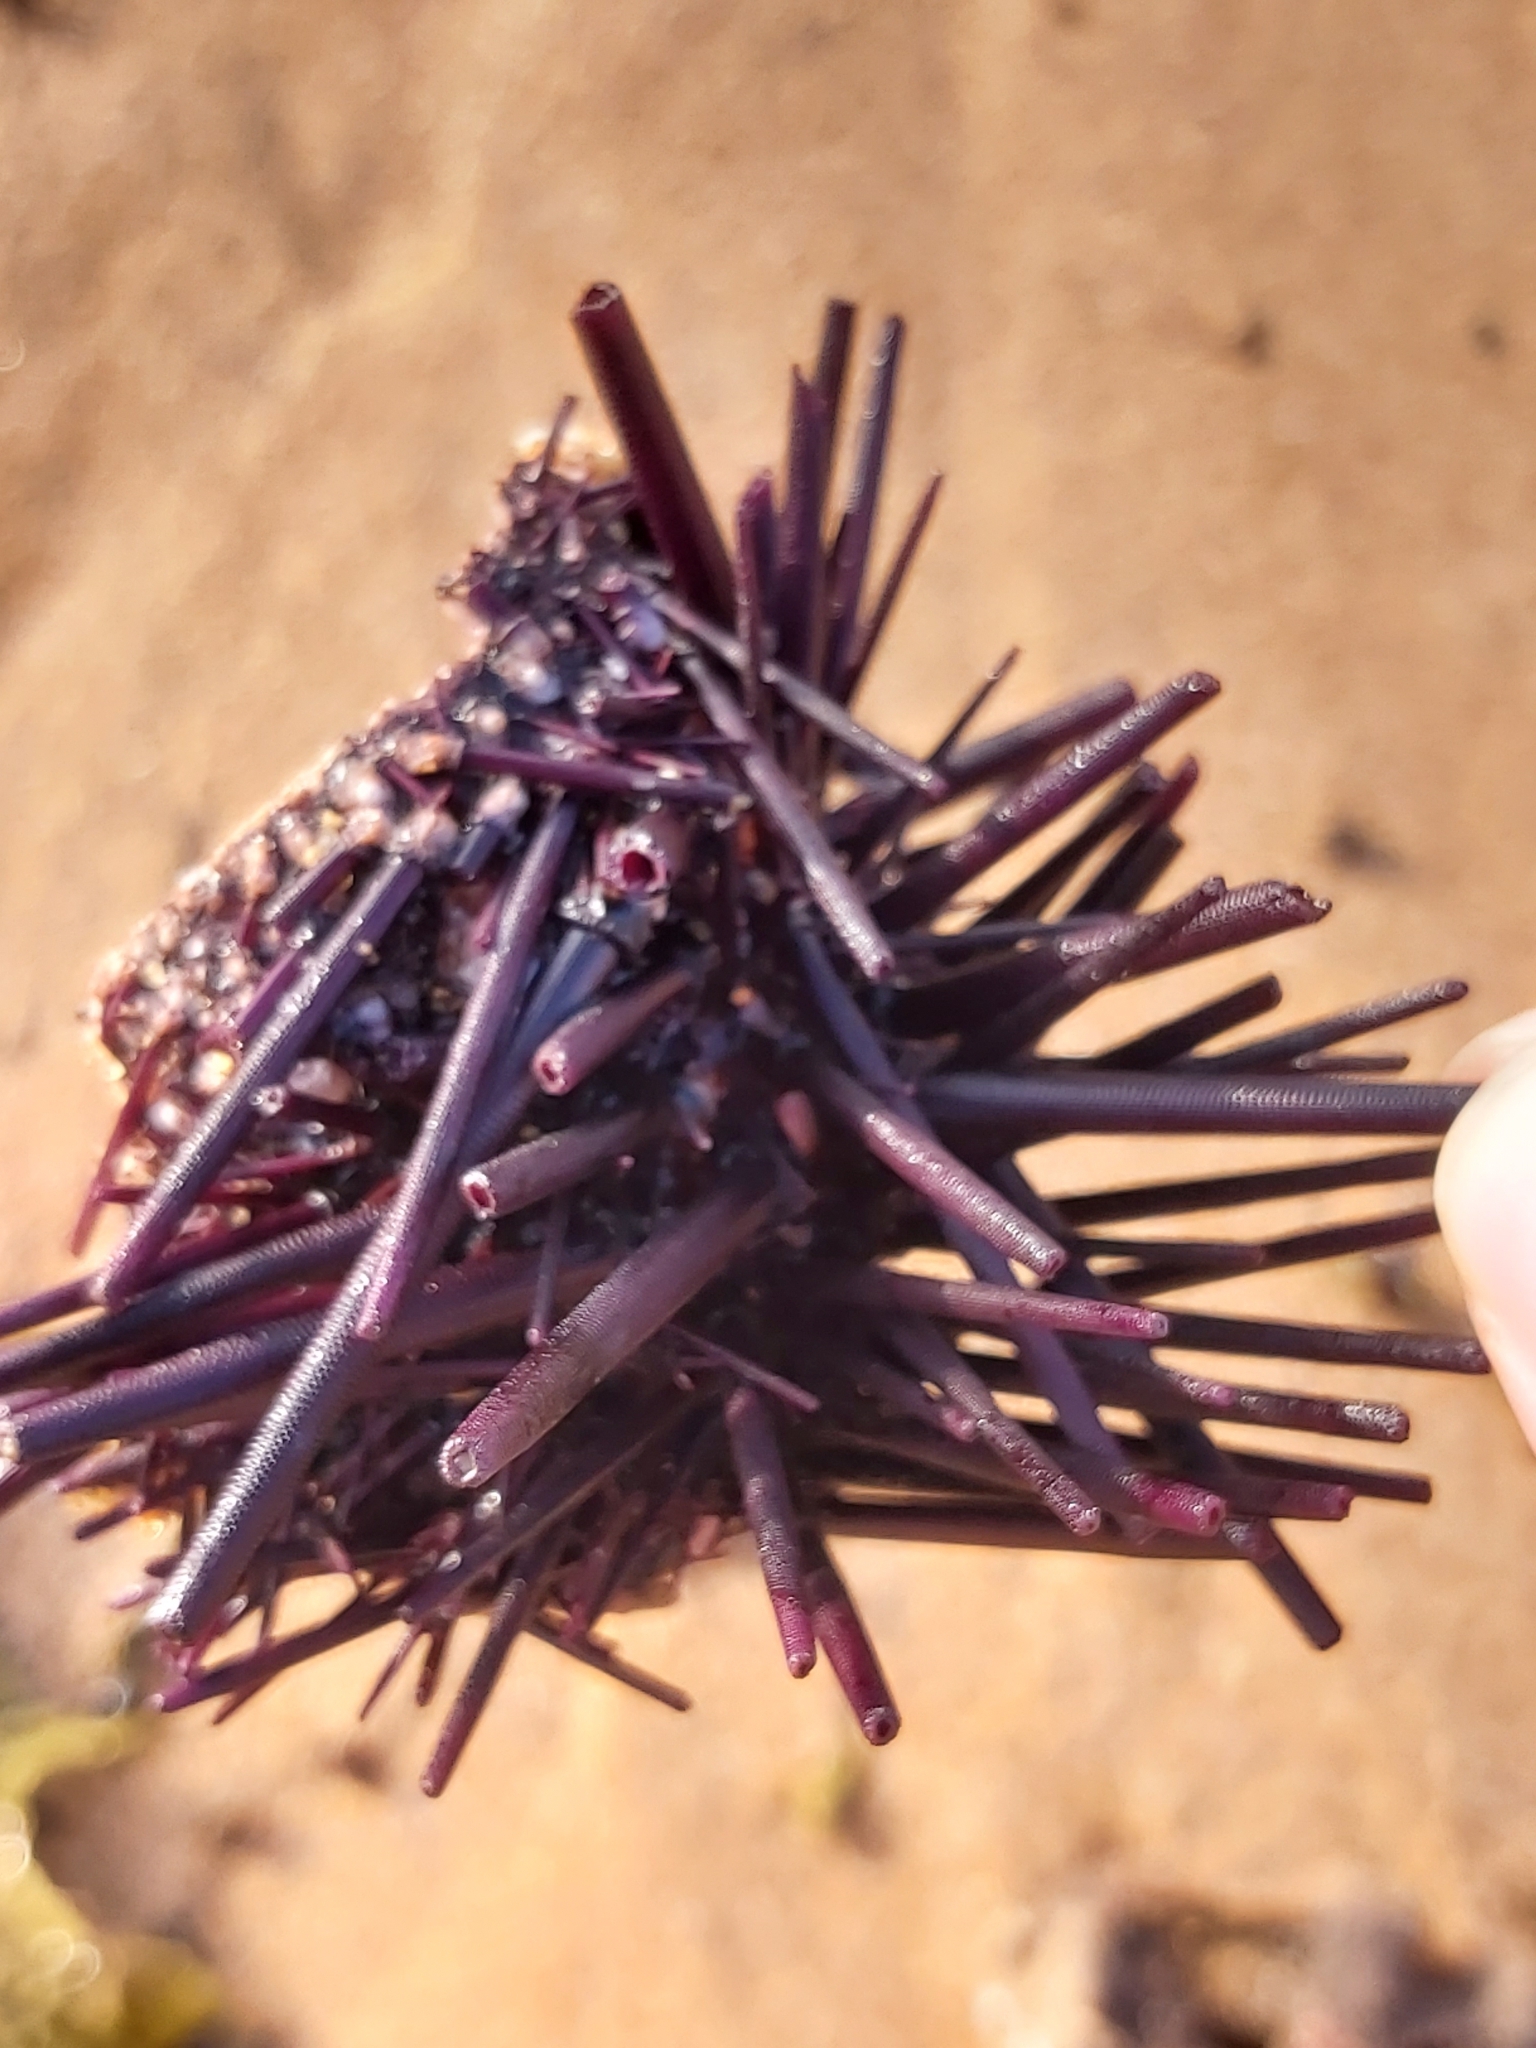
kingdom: Animalia
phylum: Echinodermata
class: Echinoidea
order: Diadematoida
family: Diadematidae
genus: Centrostephanus
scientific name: Centrostephanus rodgersii
